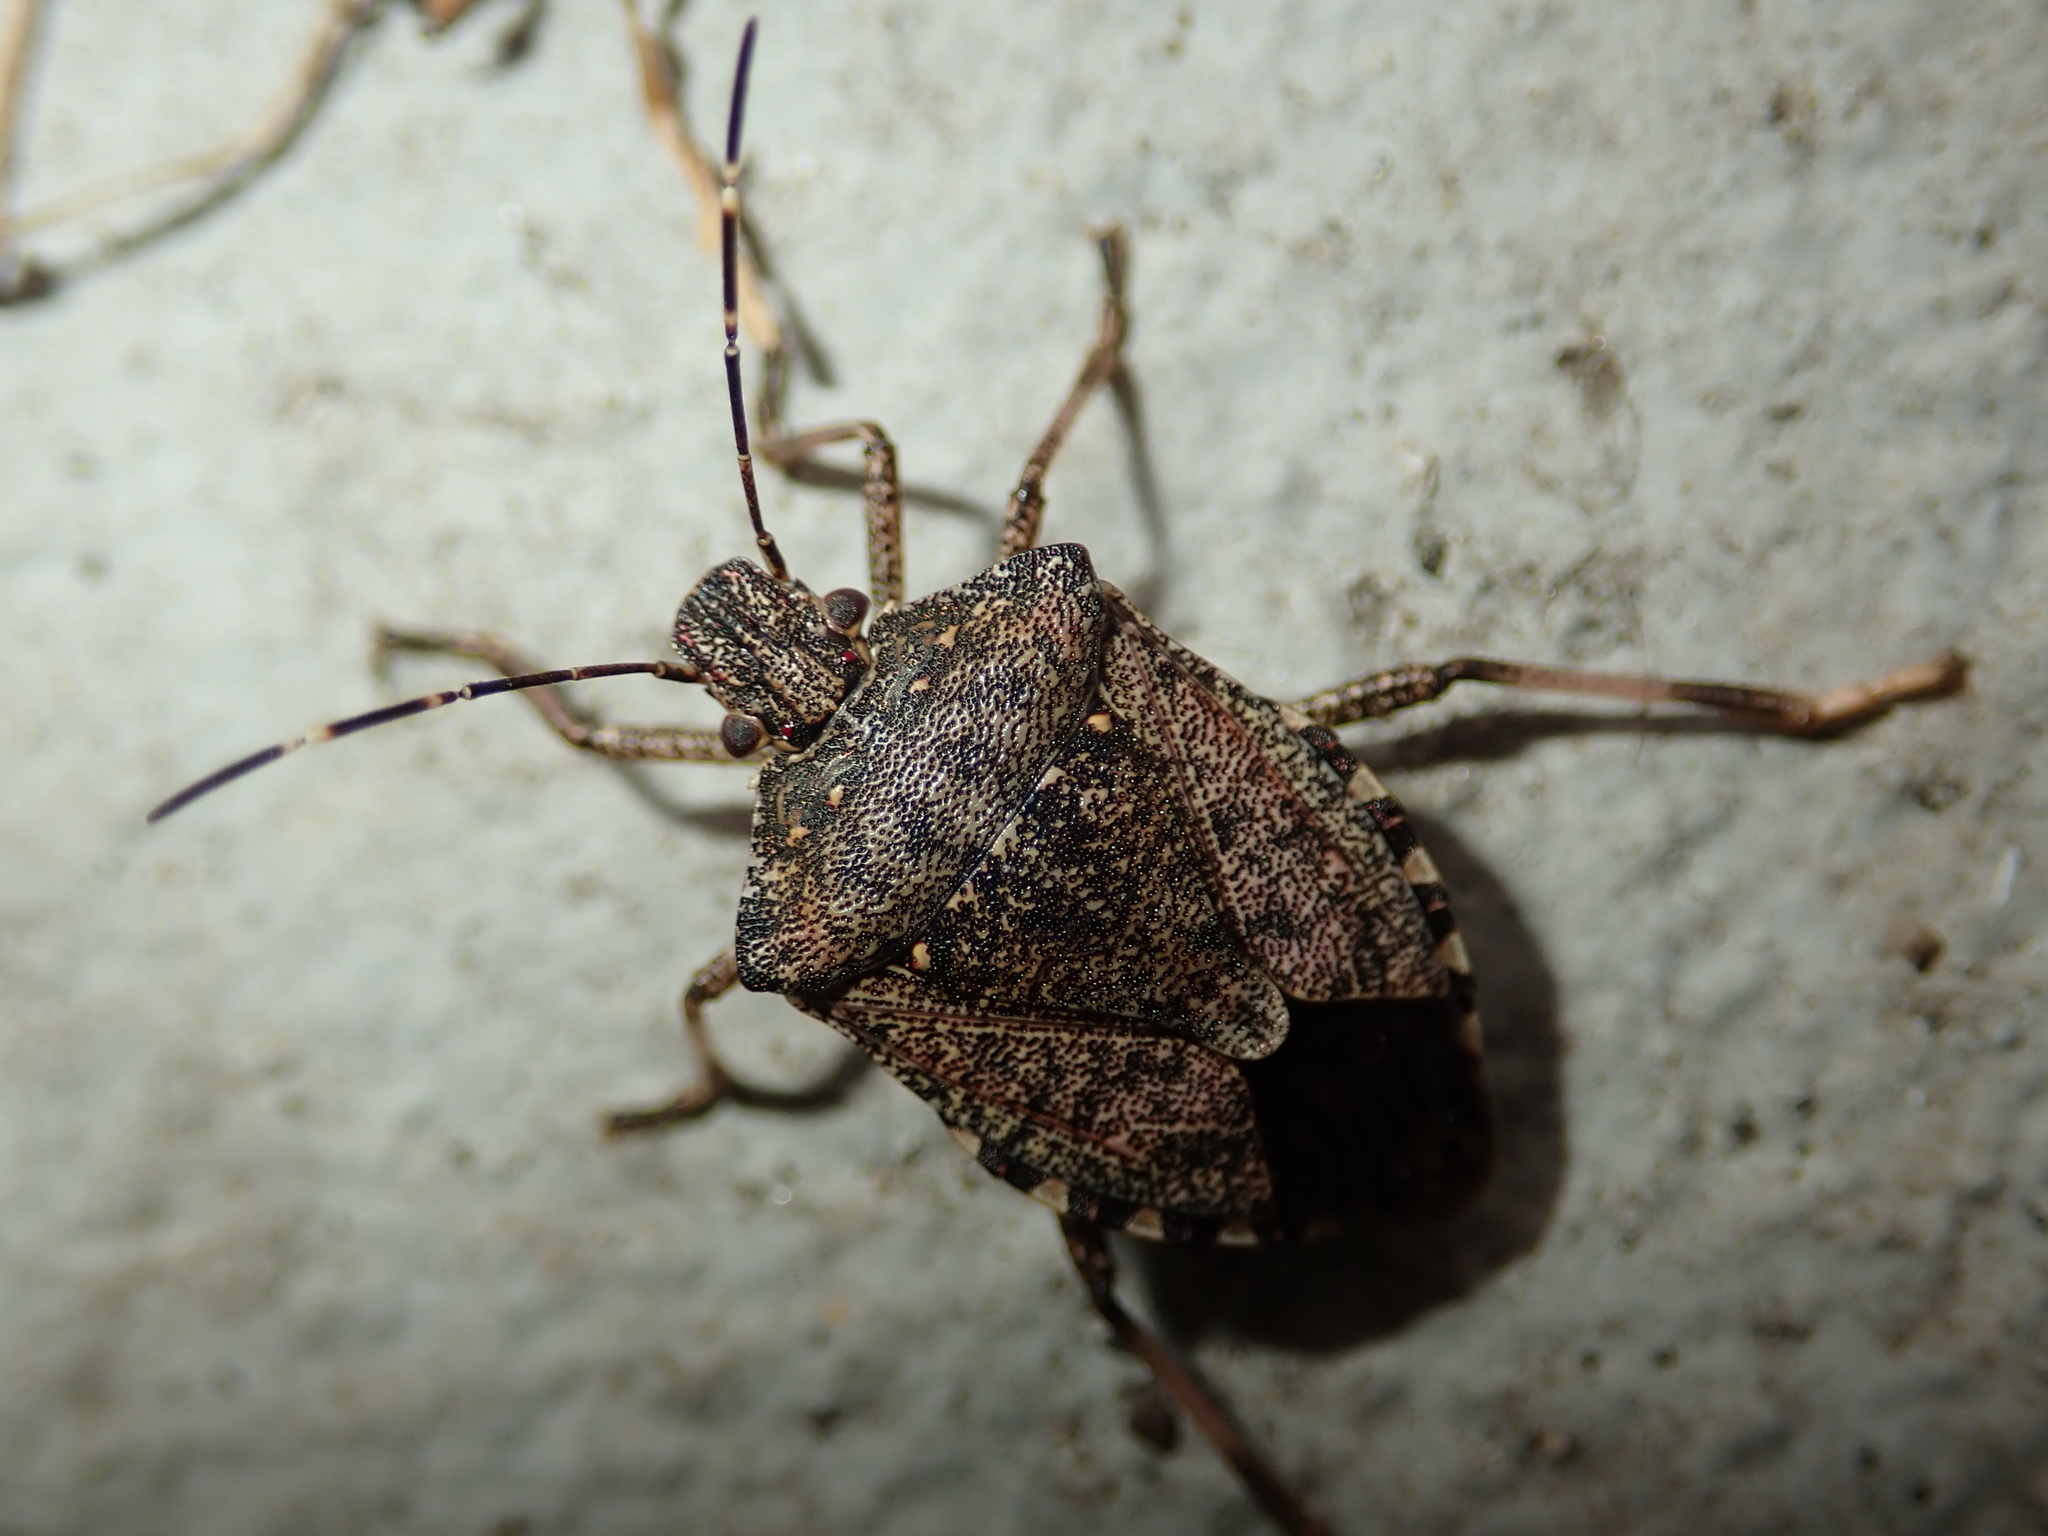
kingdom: Animalia
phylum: Arthropoda
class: Insecta
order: Hemiptera
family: Pentatomidae
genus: Halyomorpha
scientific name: Halyomorpha halys
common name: Brown marmorated stink bug
